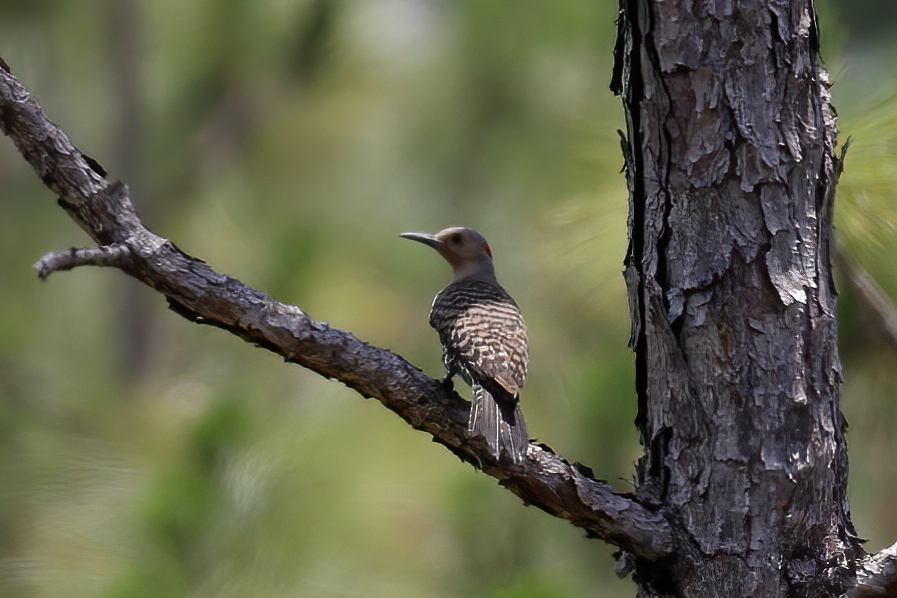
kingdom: Animalia
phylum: Chordata
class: Aves
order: Piciformes
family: Picidae
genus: Colaptes
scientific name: Colaptes auratus
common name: Northern flicker
